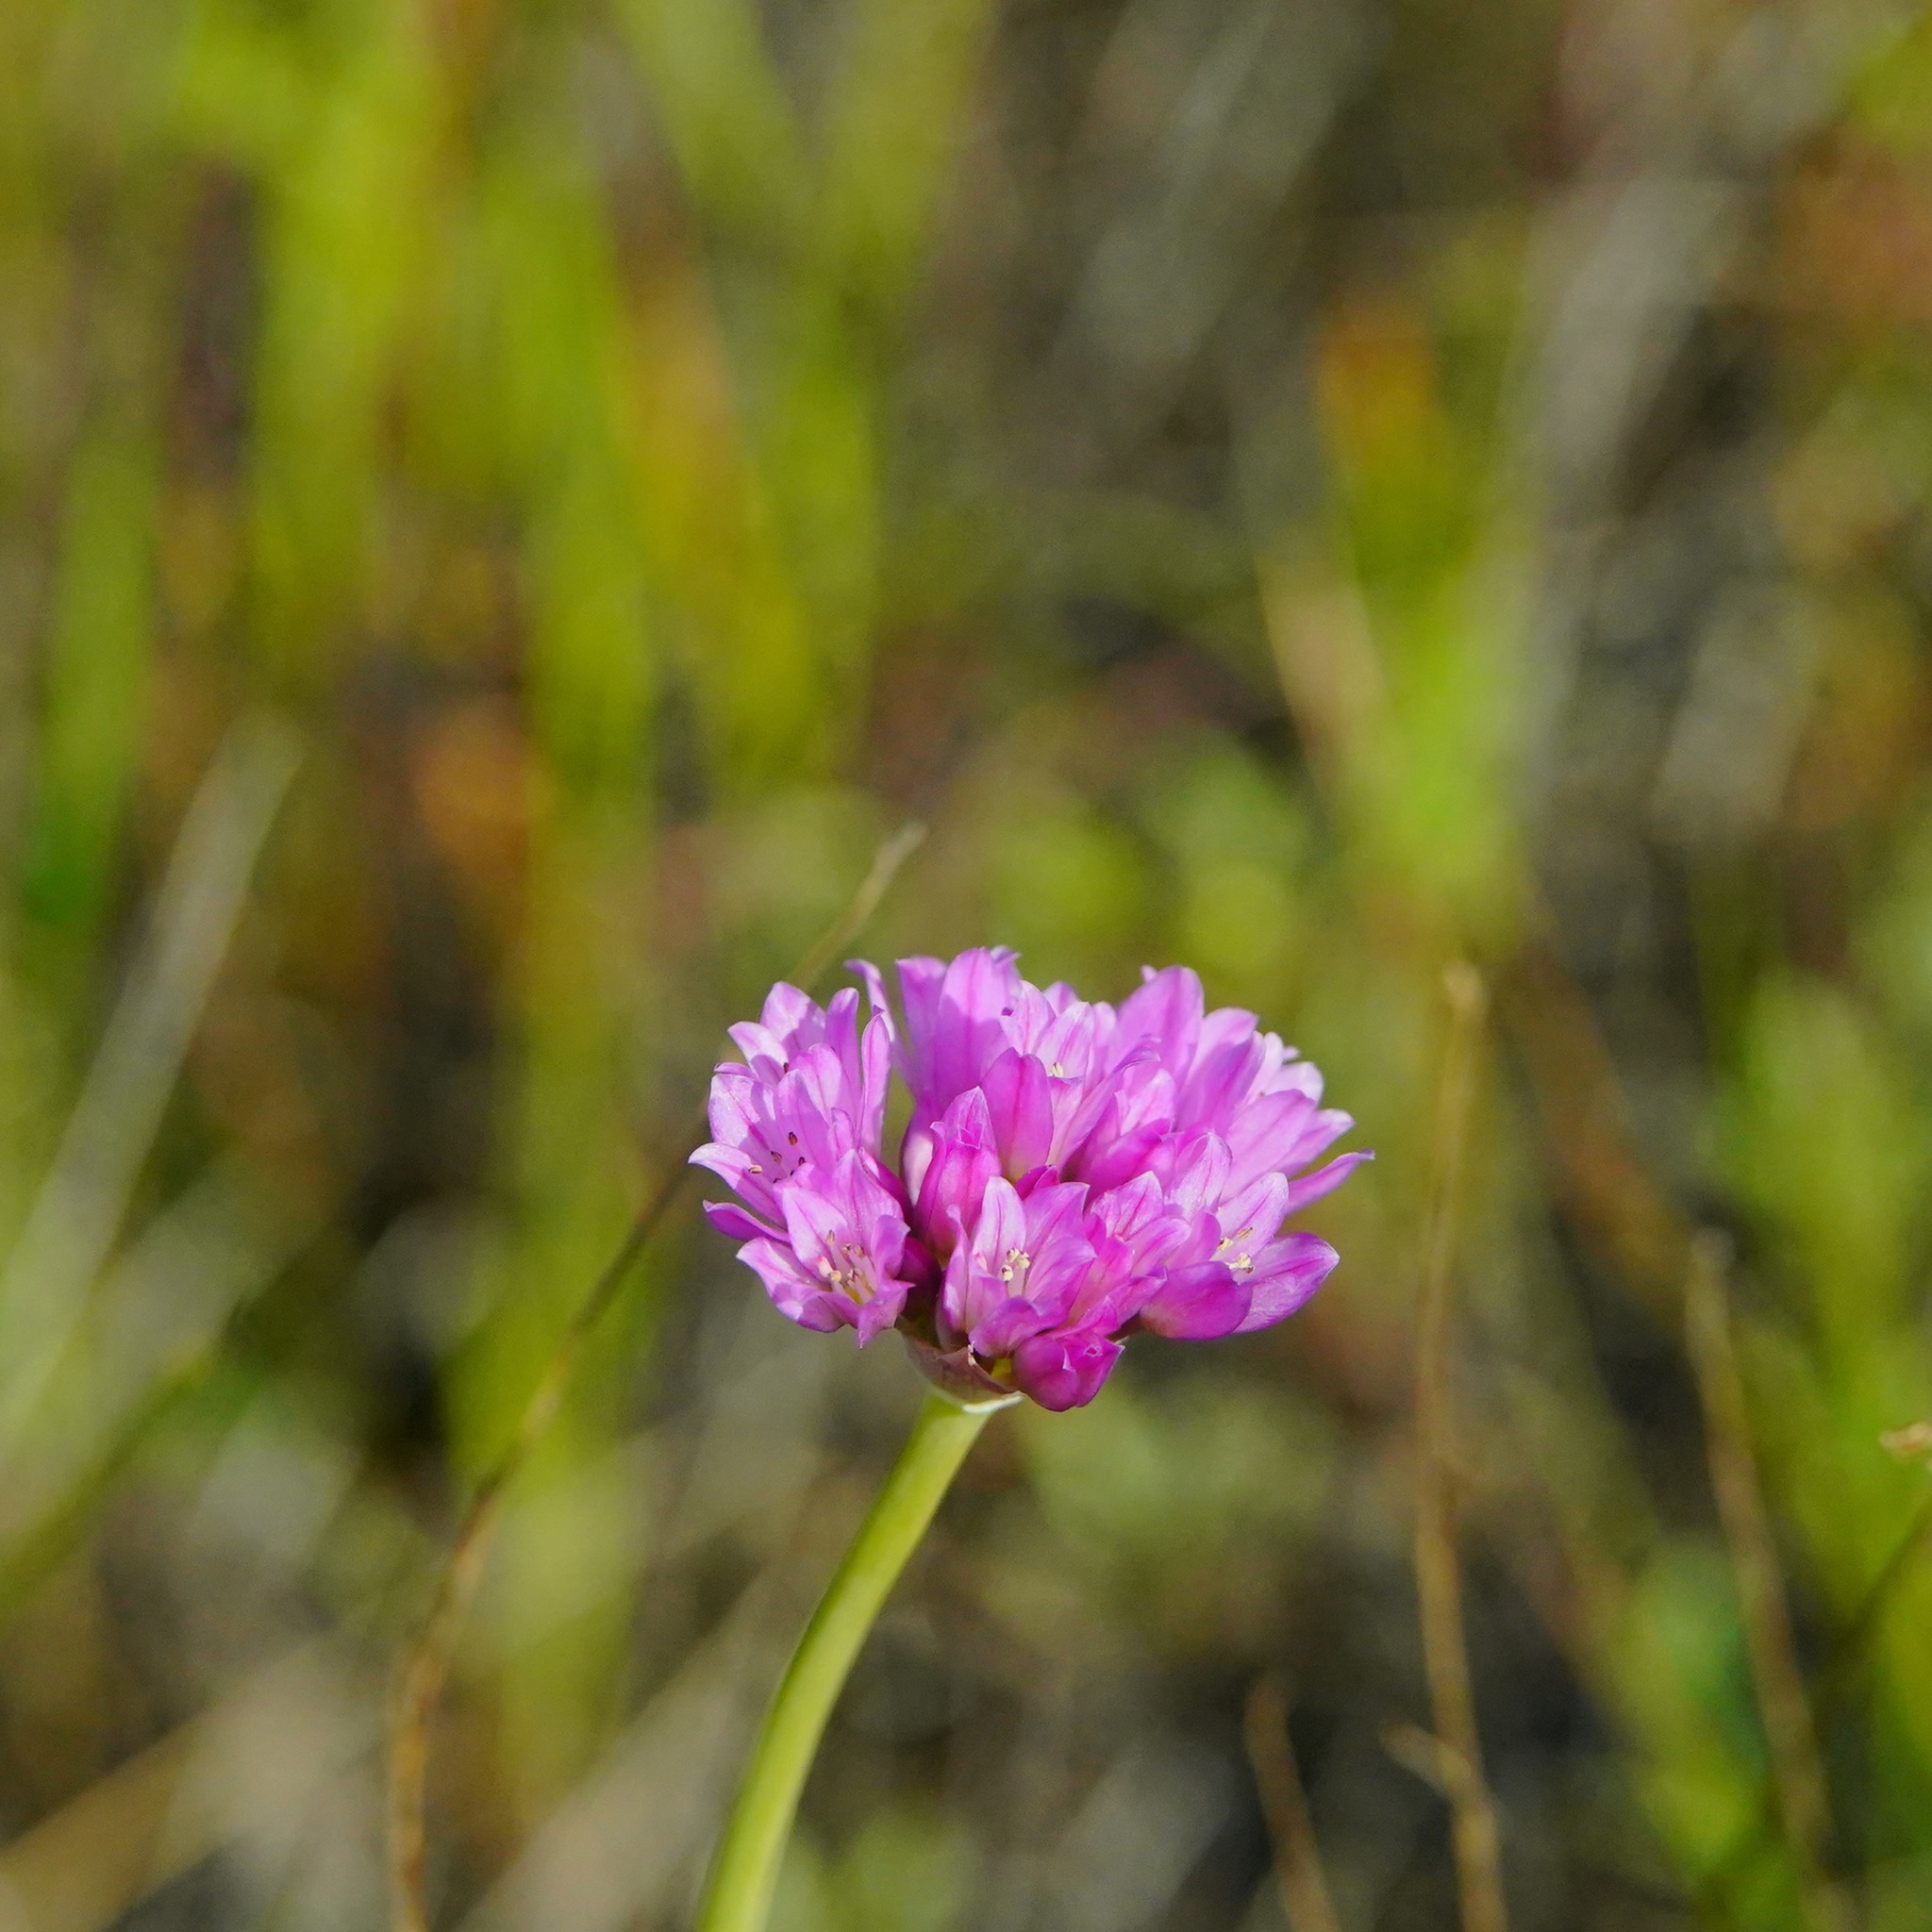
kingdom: Plantae
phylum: Tracheophyta
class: Liliopsida
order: Asparagales
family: Amaryllidaceae
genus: Allium
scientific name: Allium serra
